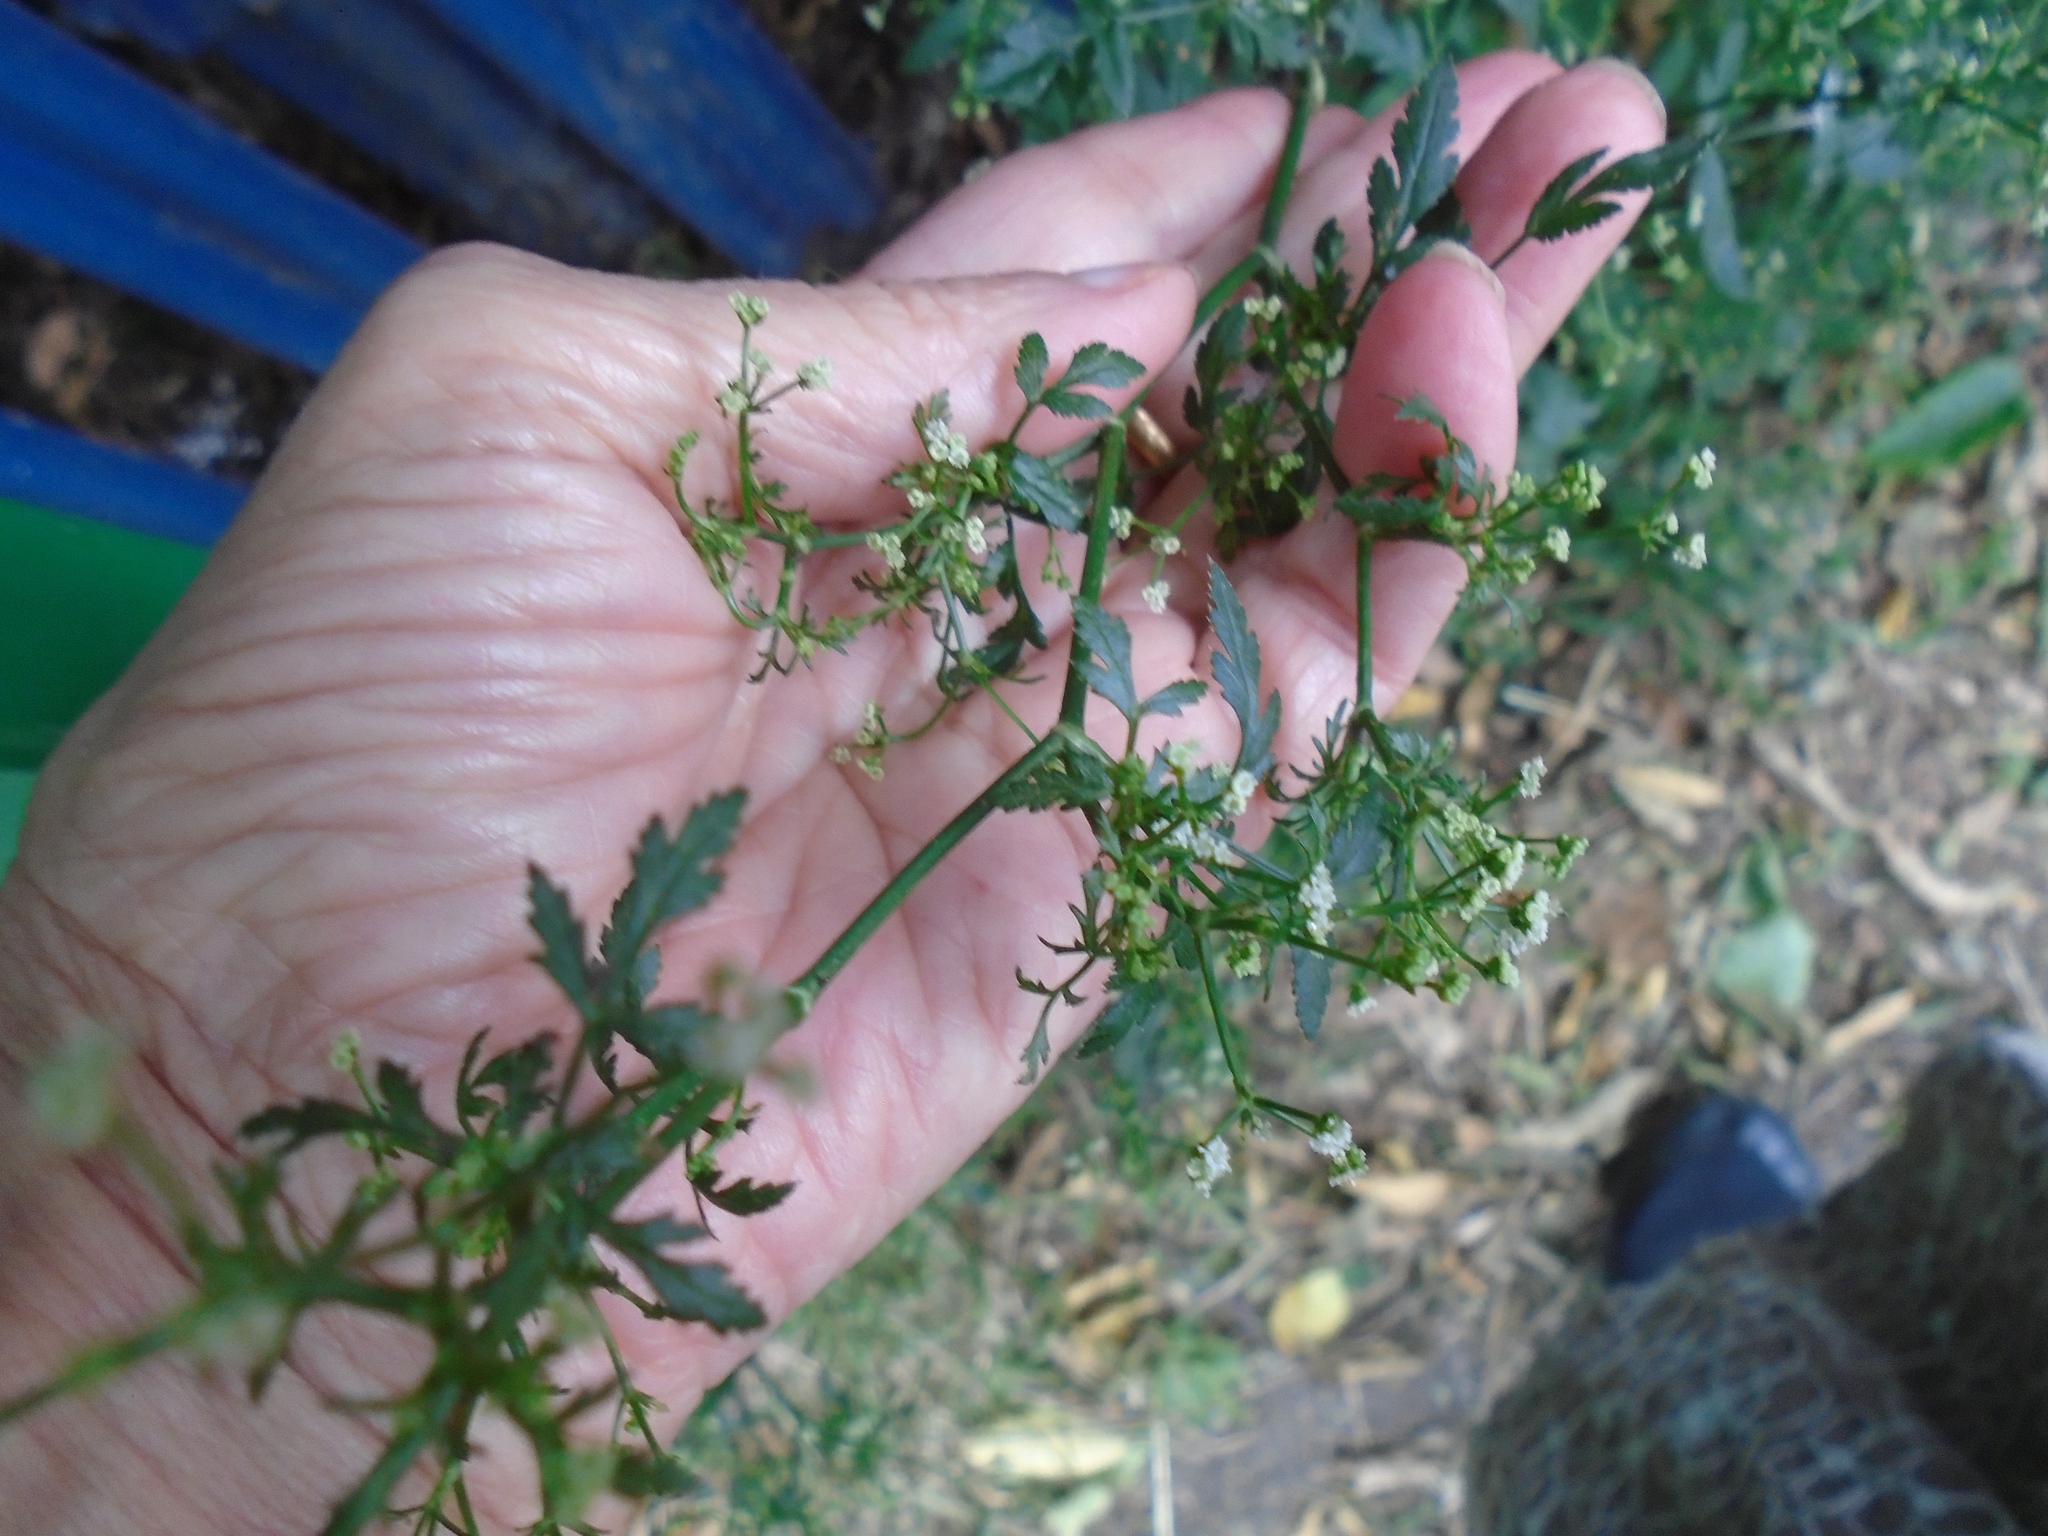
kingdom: Plantae
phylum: Tracheophyta
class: Magnoliopsida
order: Apiales
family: Apiaceae
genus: Sison
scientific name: Sison amomum
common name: Stone-parsley
